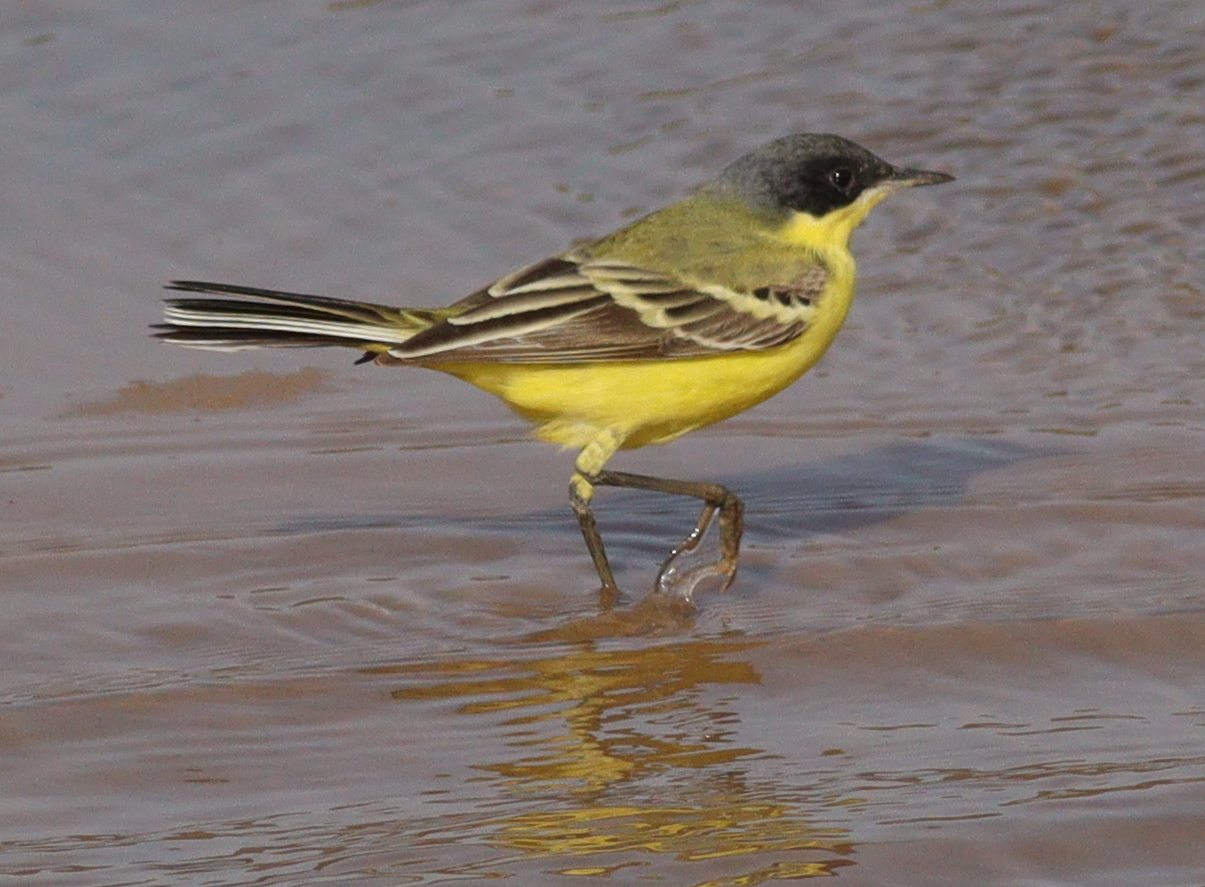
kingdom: Animalia
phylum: Chordata
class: Aves
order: Passeriformes
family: Motacillidae
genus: Motacilla
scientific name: Motacilla flava
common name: Western yellow wagtail
